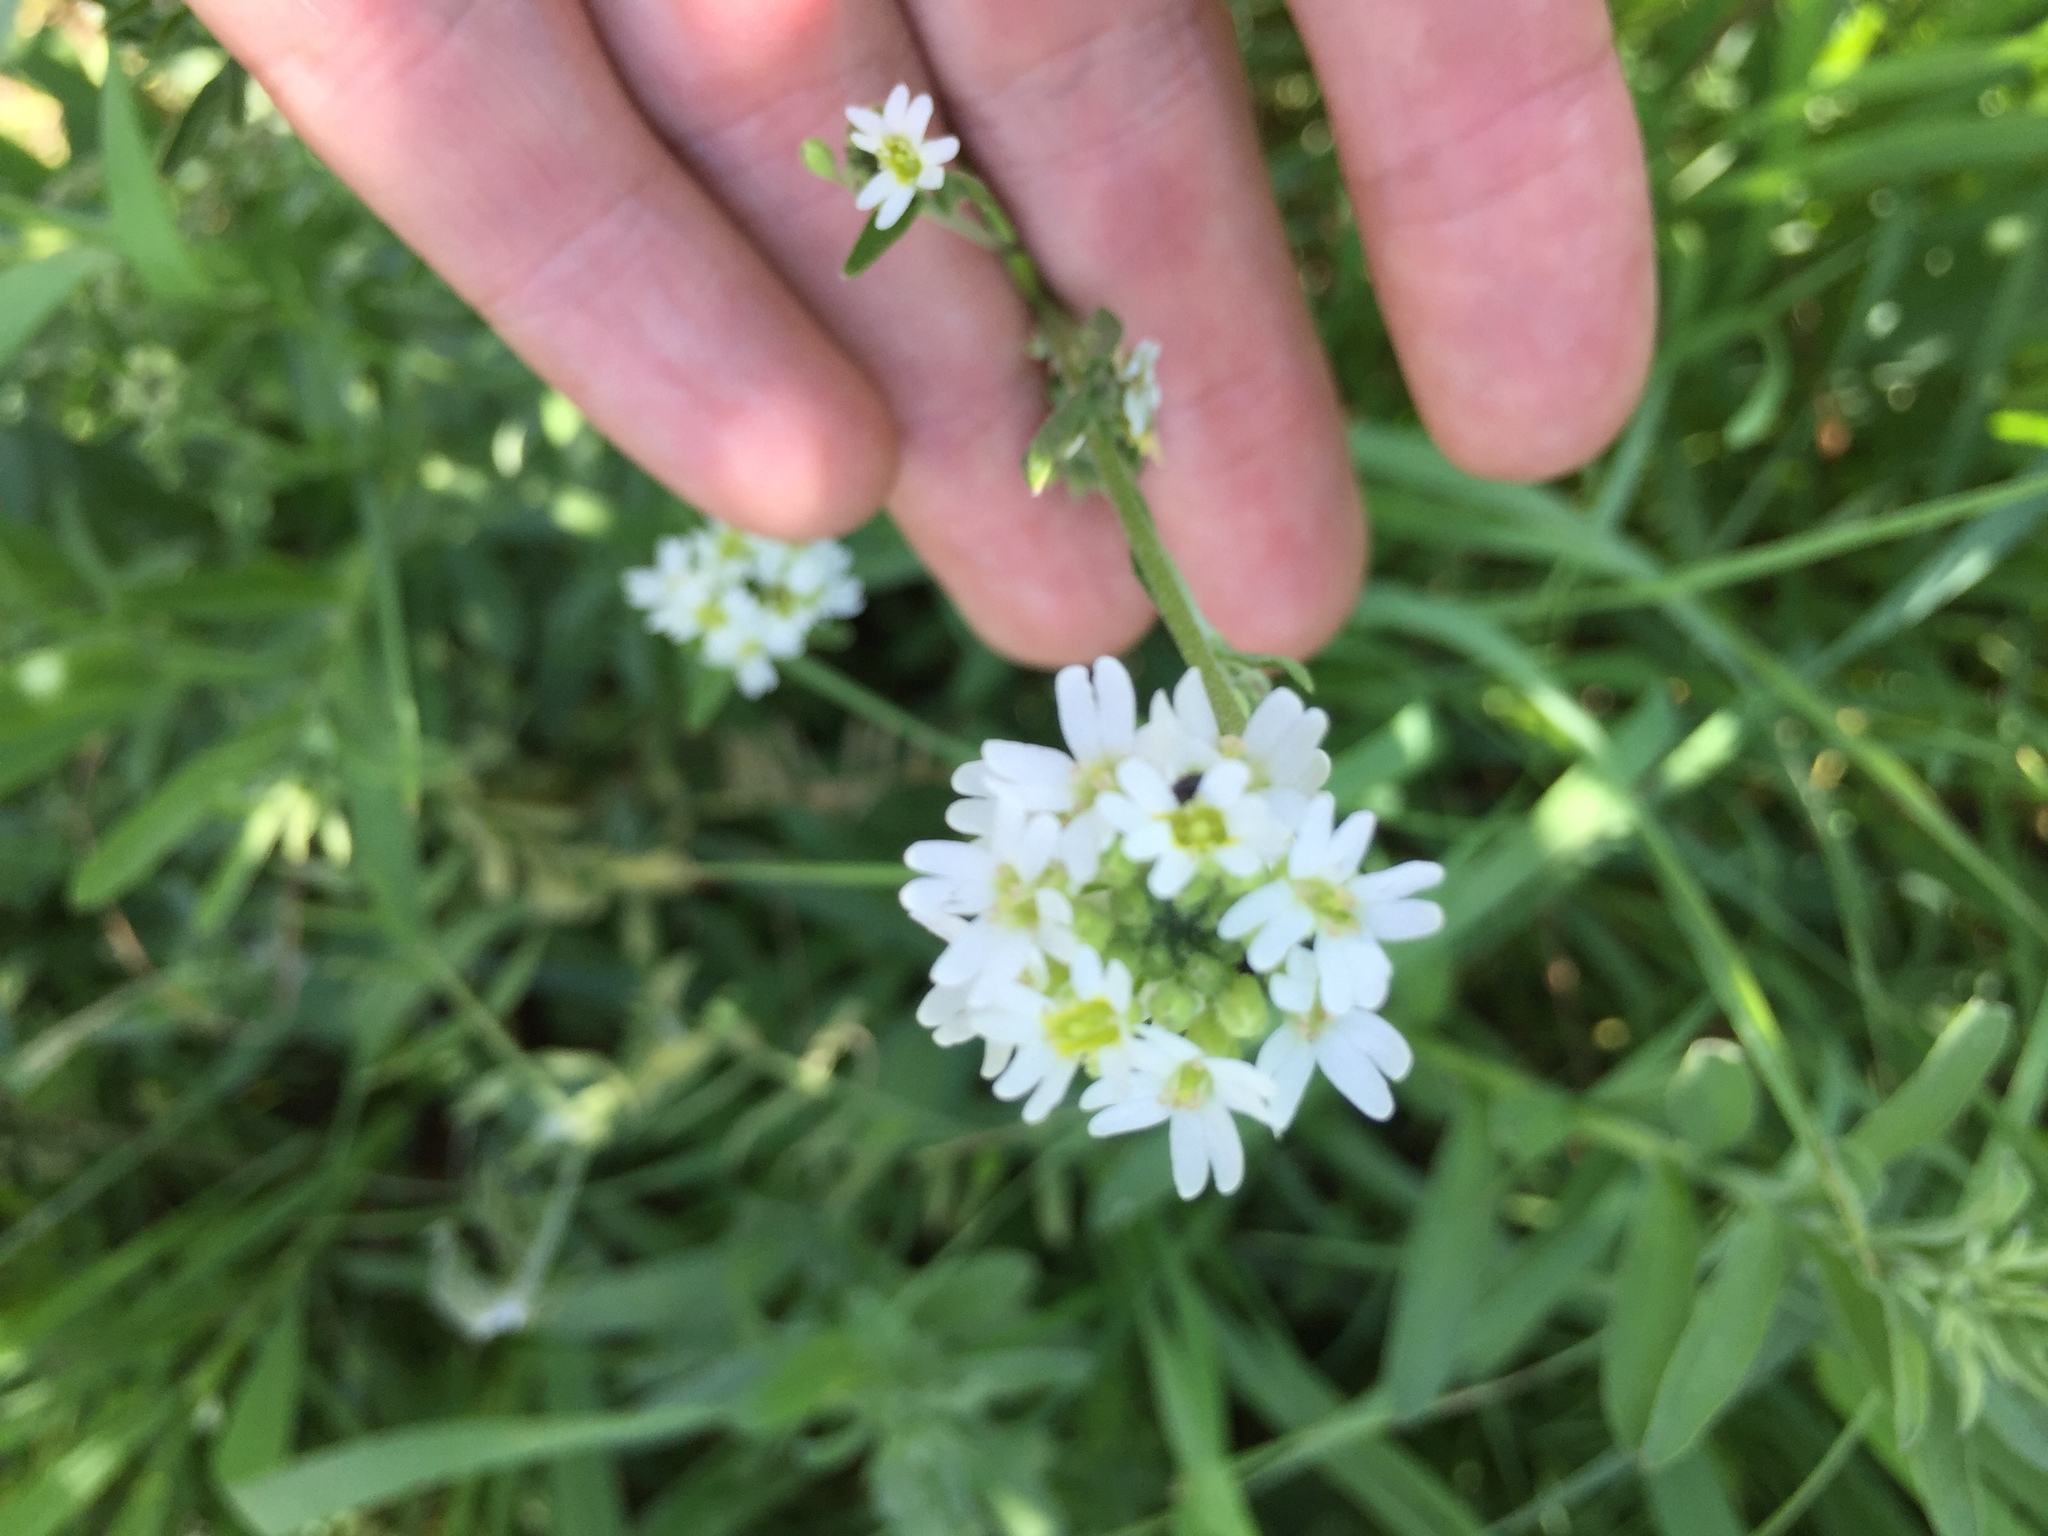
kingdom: Plantae
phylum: Tracheophyta
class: Magnoliopsida
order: Brassicales
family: Brassicaceae
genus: Berteroa
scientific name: Berteroa incana
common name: Hoary alison
